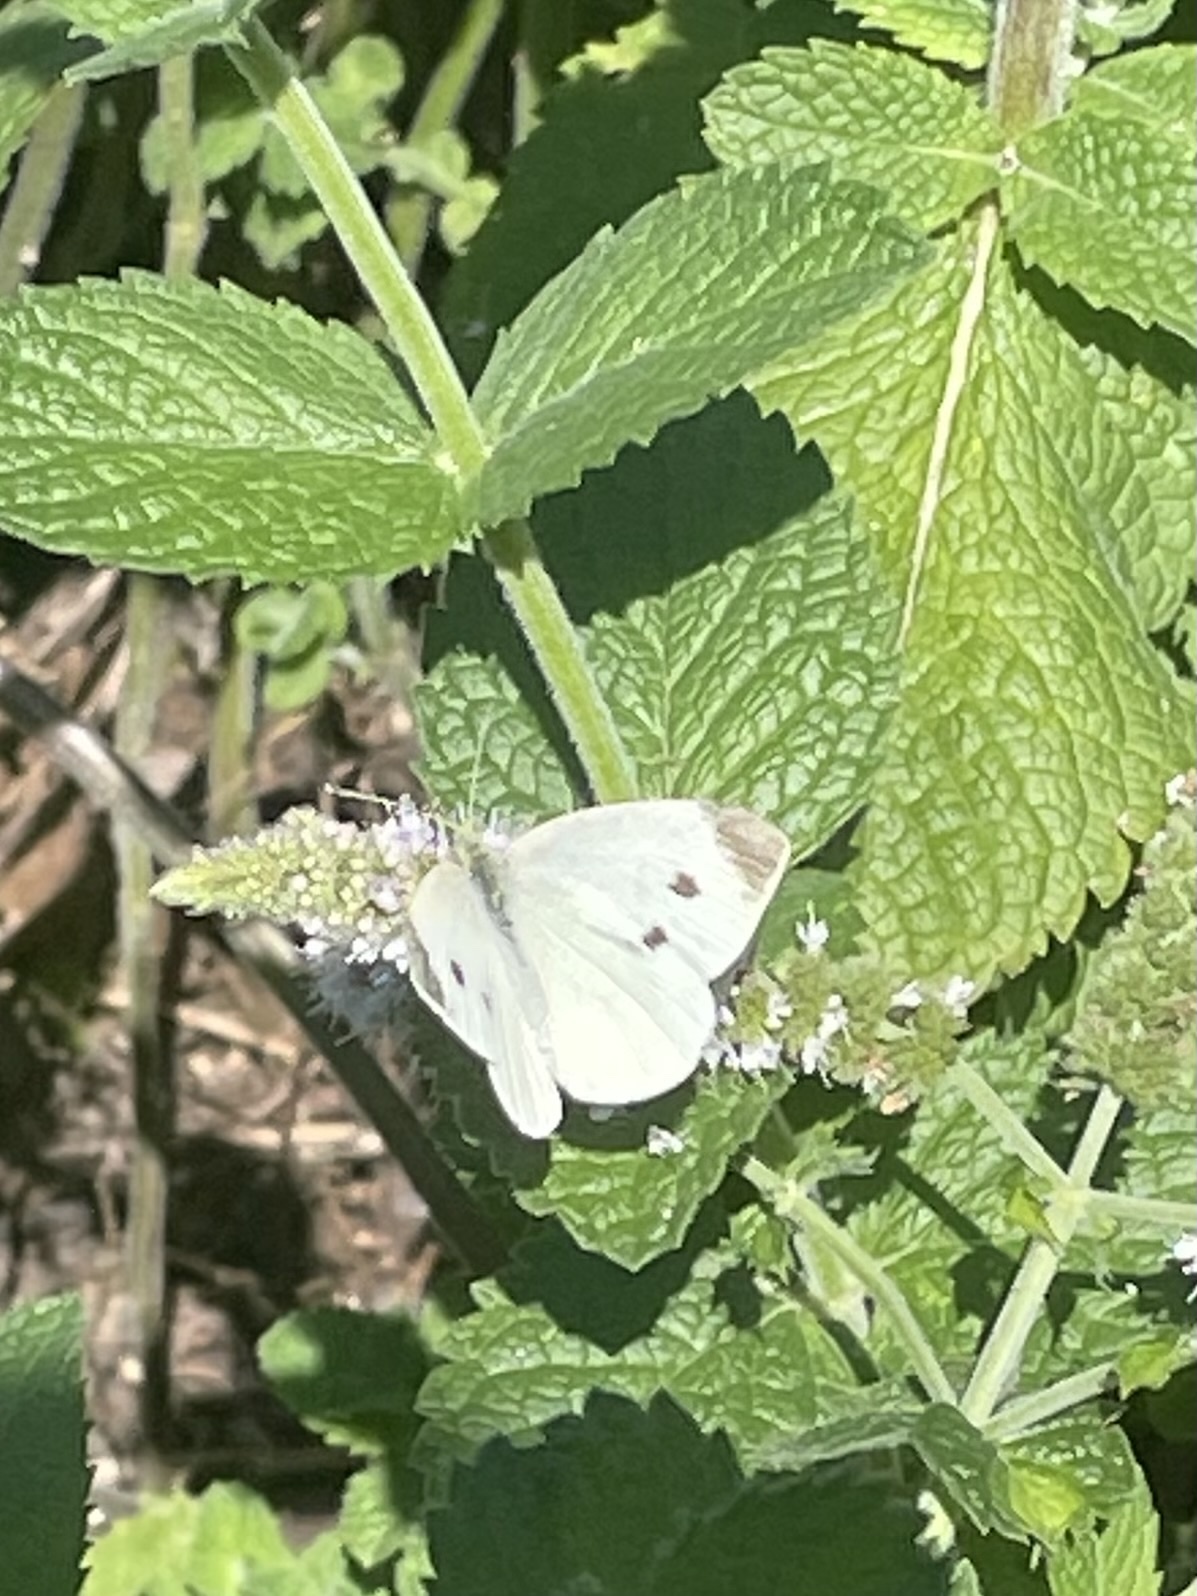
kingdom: Animalia
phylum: Arthropoda
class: Insecta
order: Lepidoptera
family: Pieridae
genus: Pieris
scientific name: Pieris rapae
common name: Small white
